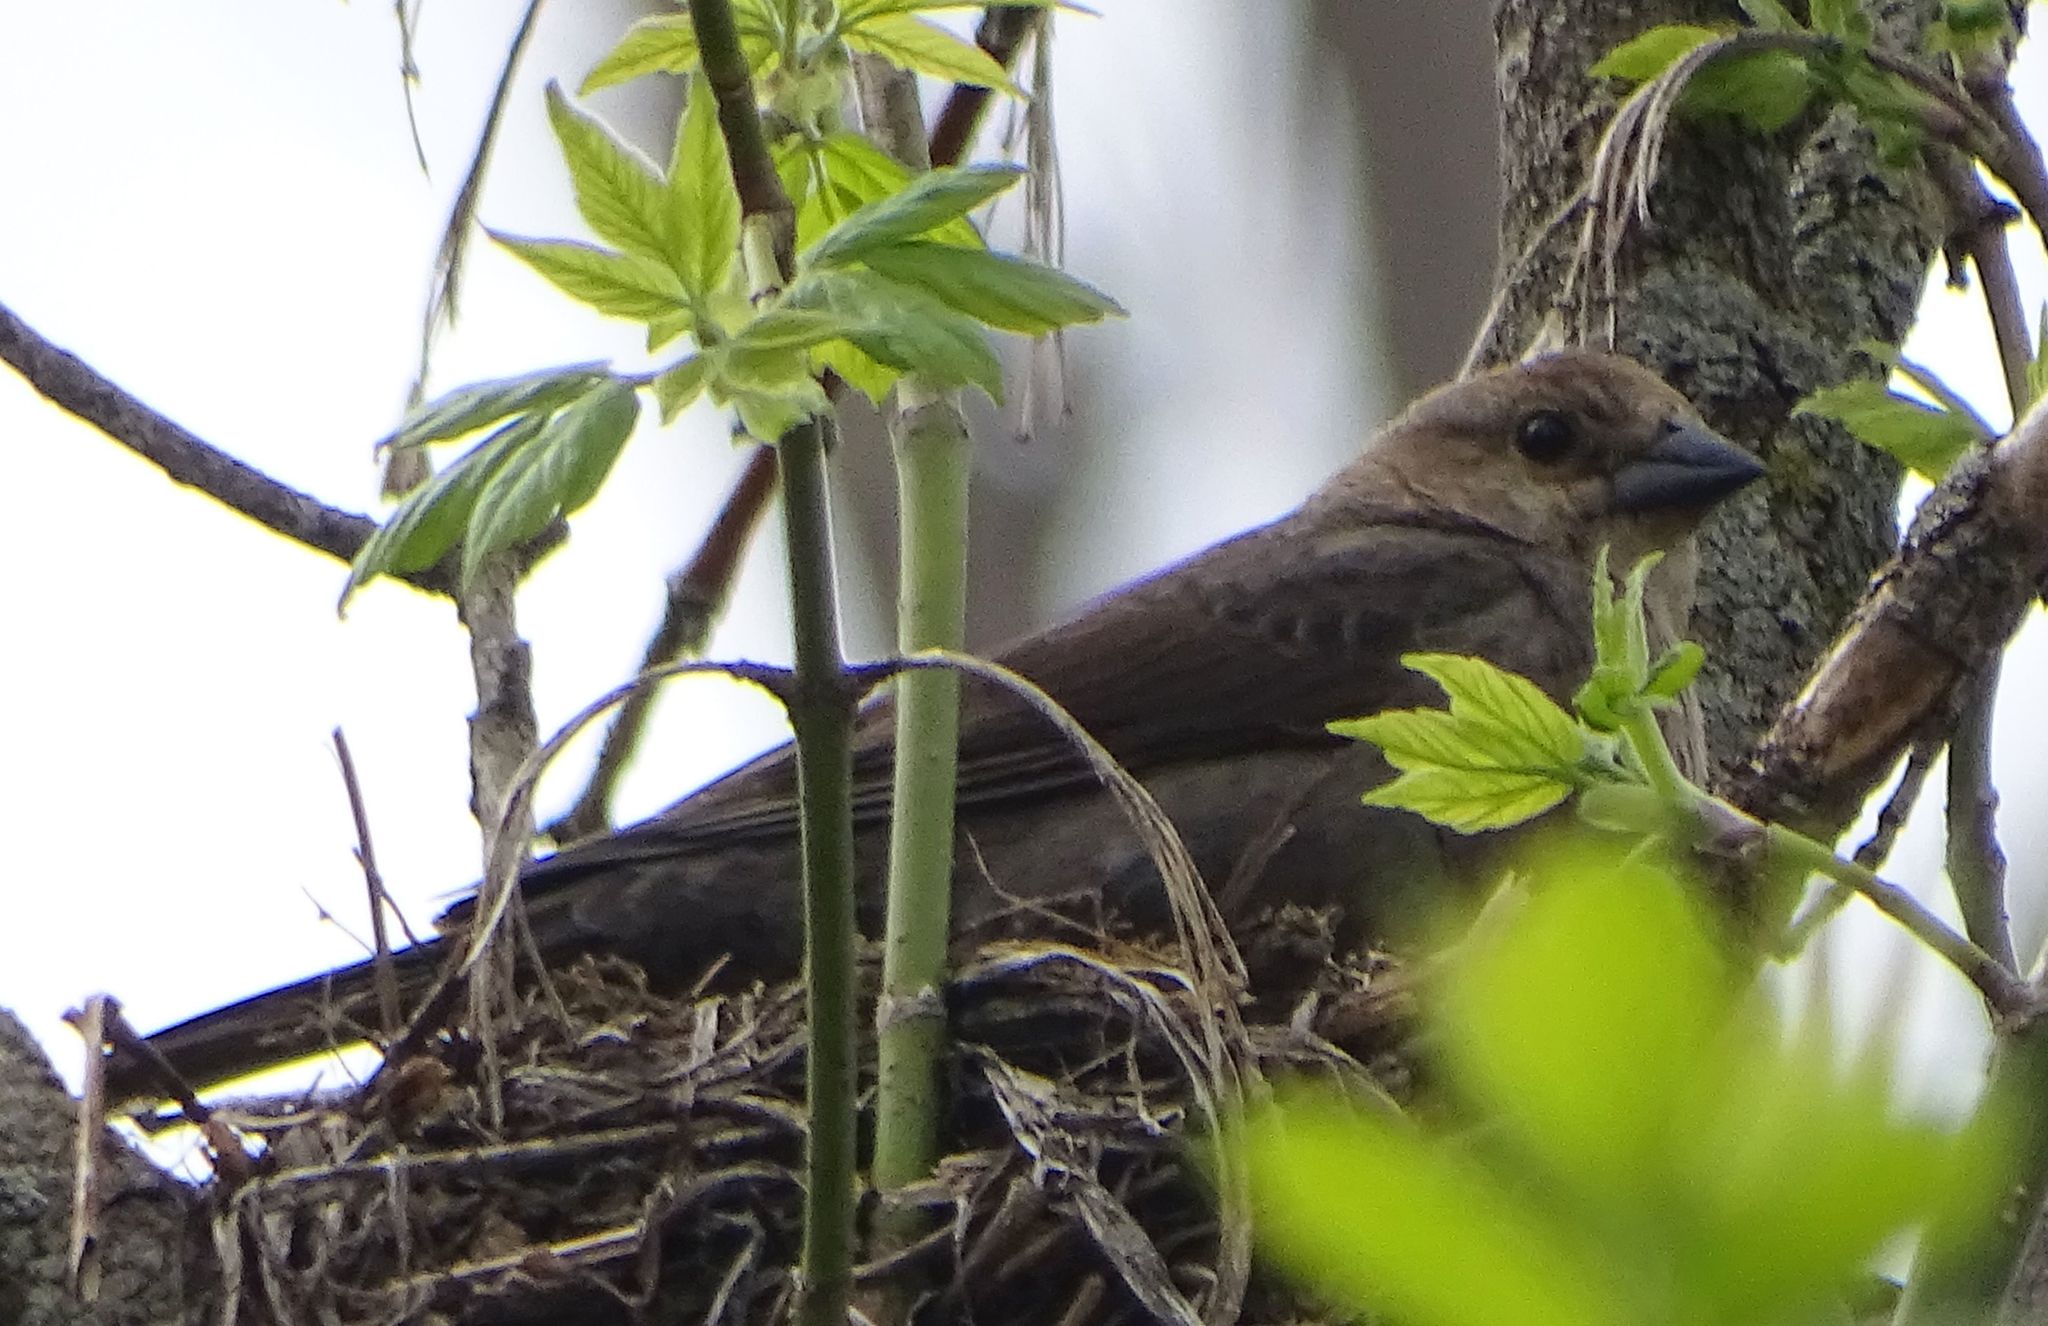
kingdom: Animalia
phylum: Chordata
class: Aves
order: Passeriformes
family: Icteridae
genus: Molothrus
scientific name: Molothrus ater
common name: Brown-headed cowbird
